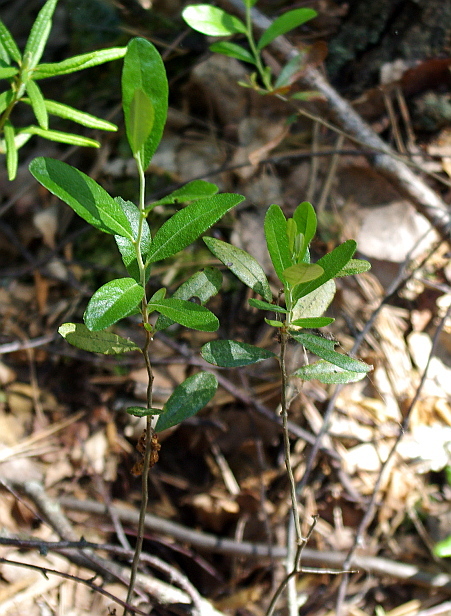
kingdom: Plantae
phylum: Tracheophyta
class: Magnoliopsida
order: Ericales
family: Ericaceae
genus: Chamaedaphne
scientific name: Chamaedaphne calyculata
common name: Leatherleaf
